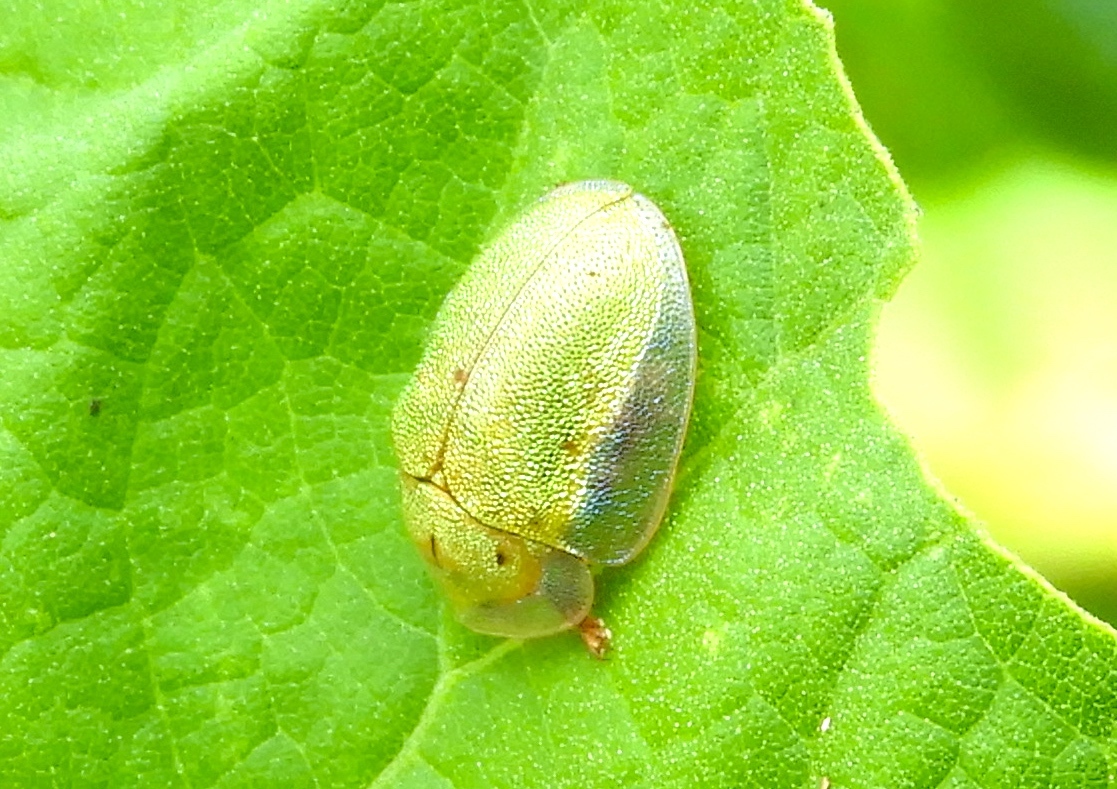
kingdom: Animalia
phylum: Arthropoda
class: Insecta
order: Coleoptera
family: Chrysomelidae
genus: Physonota
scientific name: Physonota arizonae
